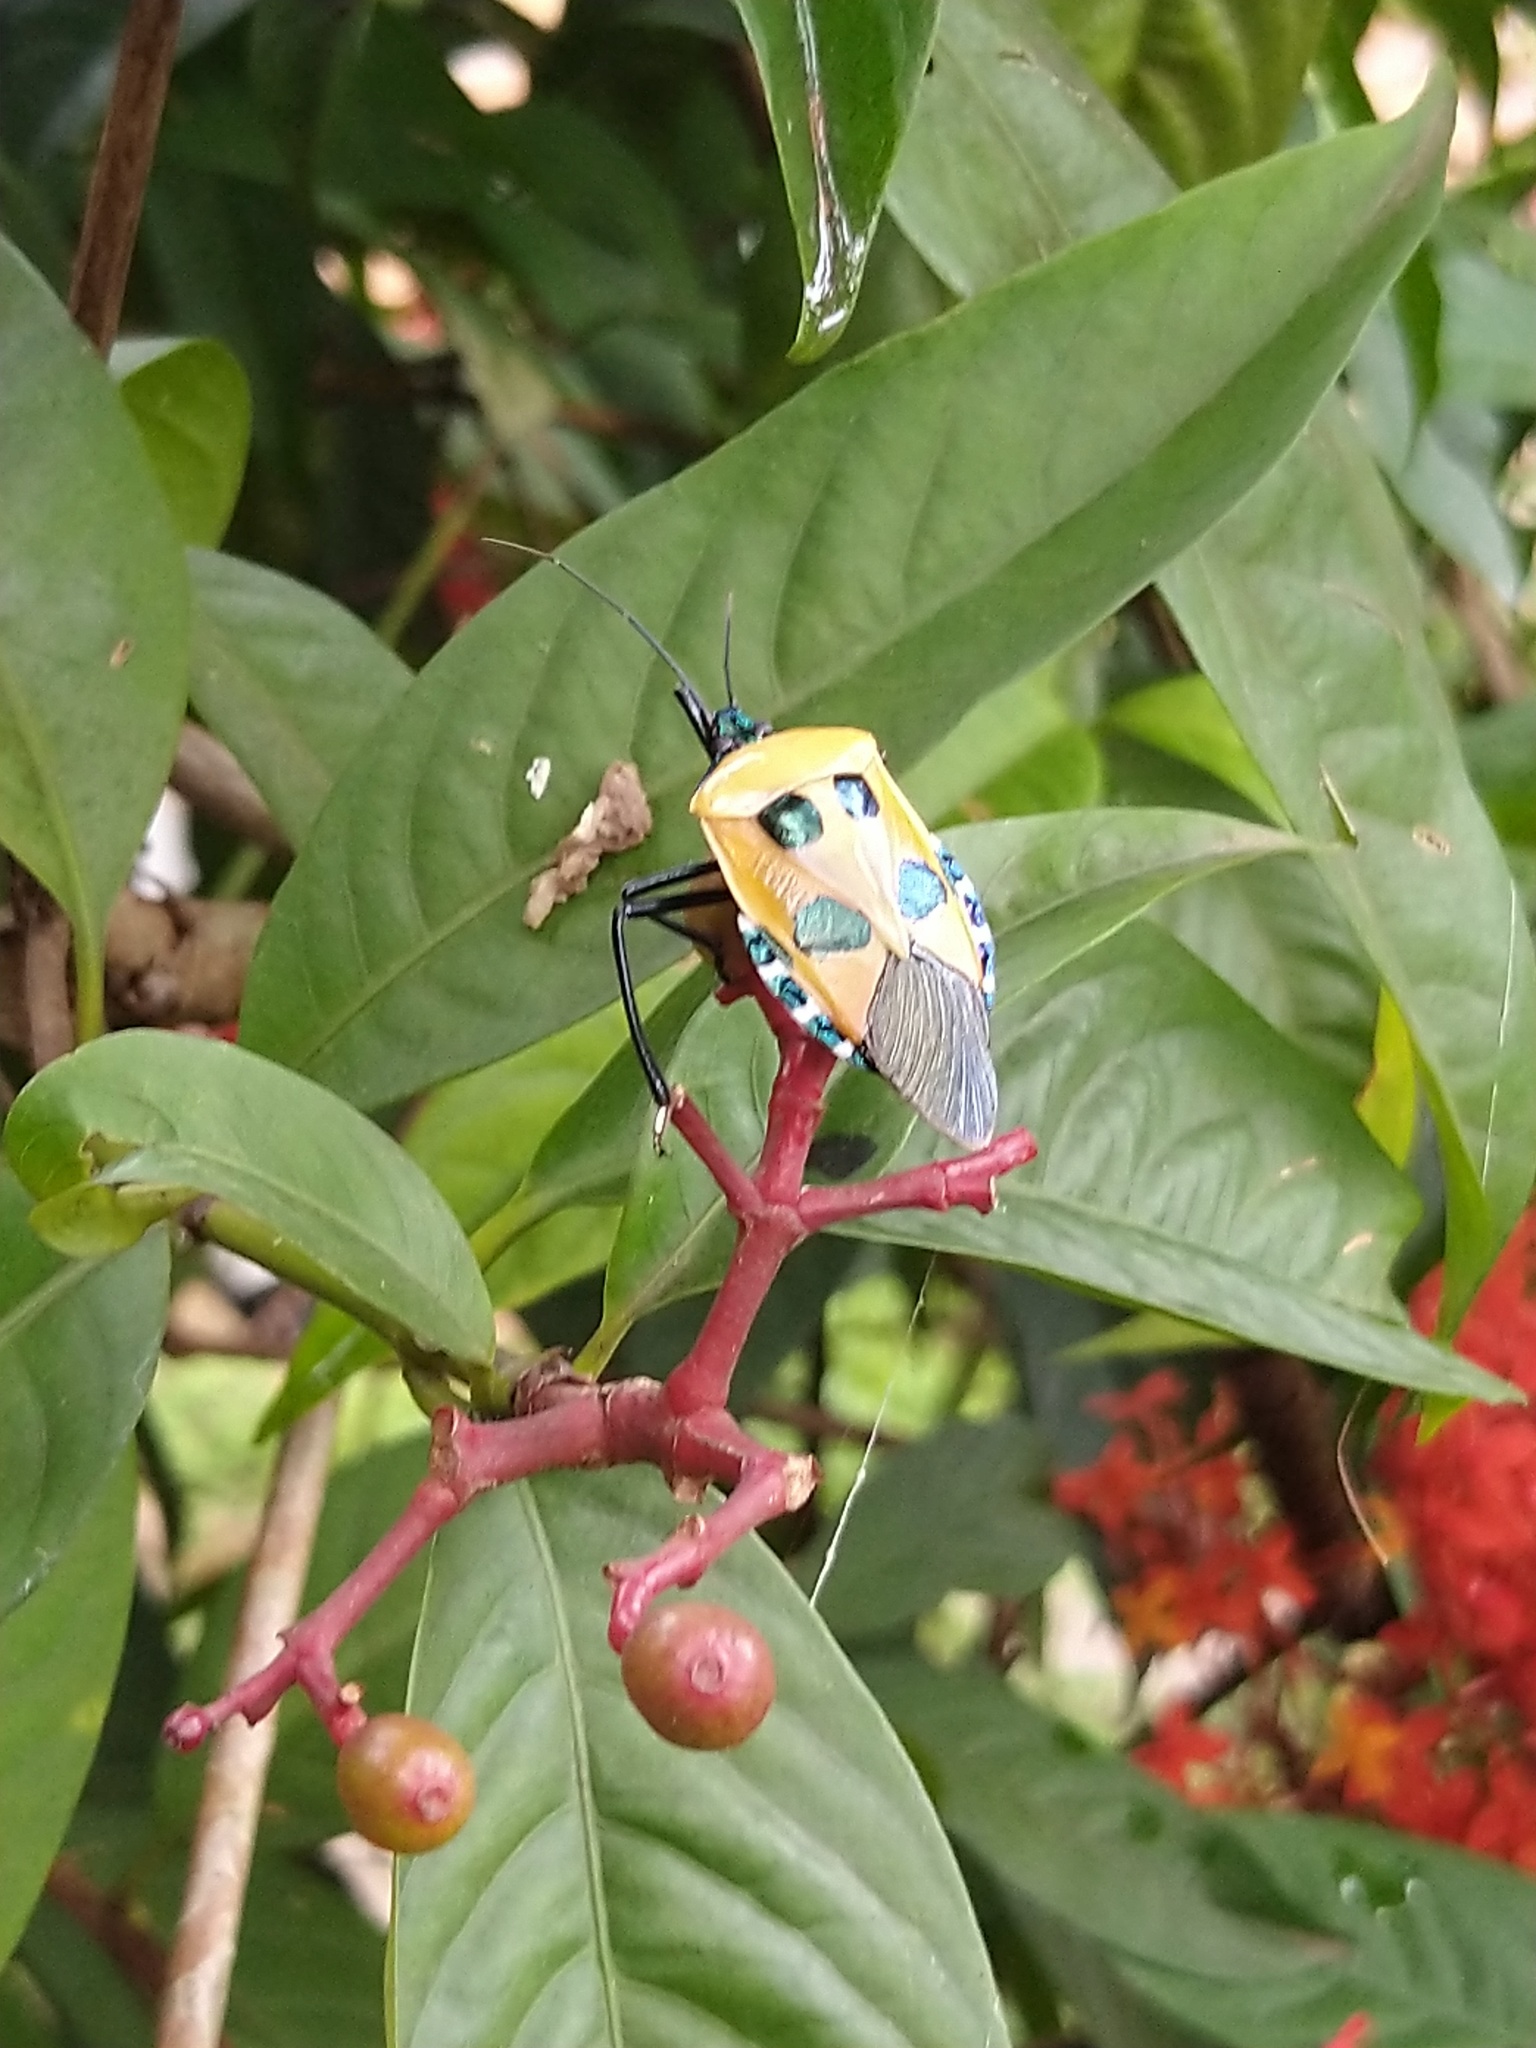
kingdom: Animalia
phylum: Arthropoda
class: Insecta
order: Hemiptera
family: Pentatomidae
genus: Catacanthus
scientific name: Catacanthus incarnatus
